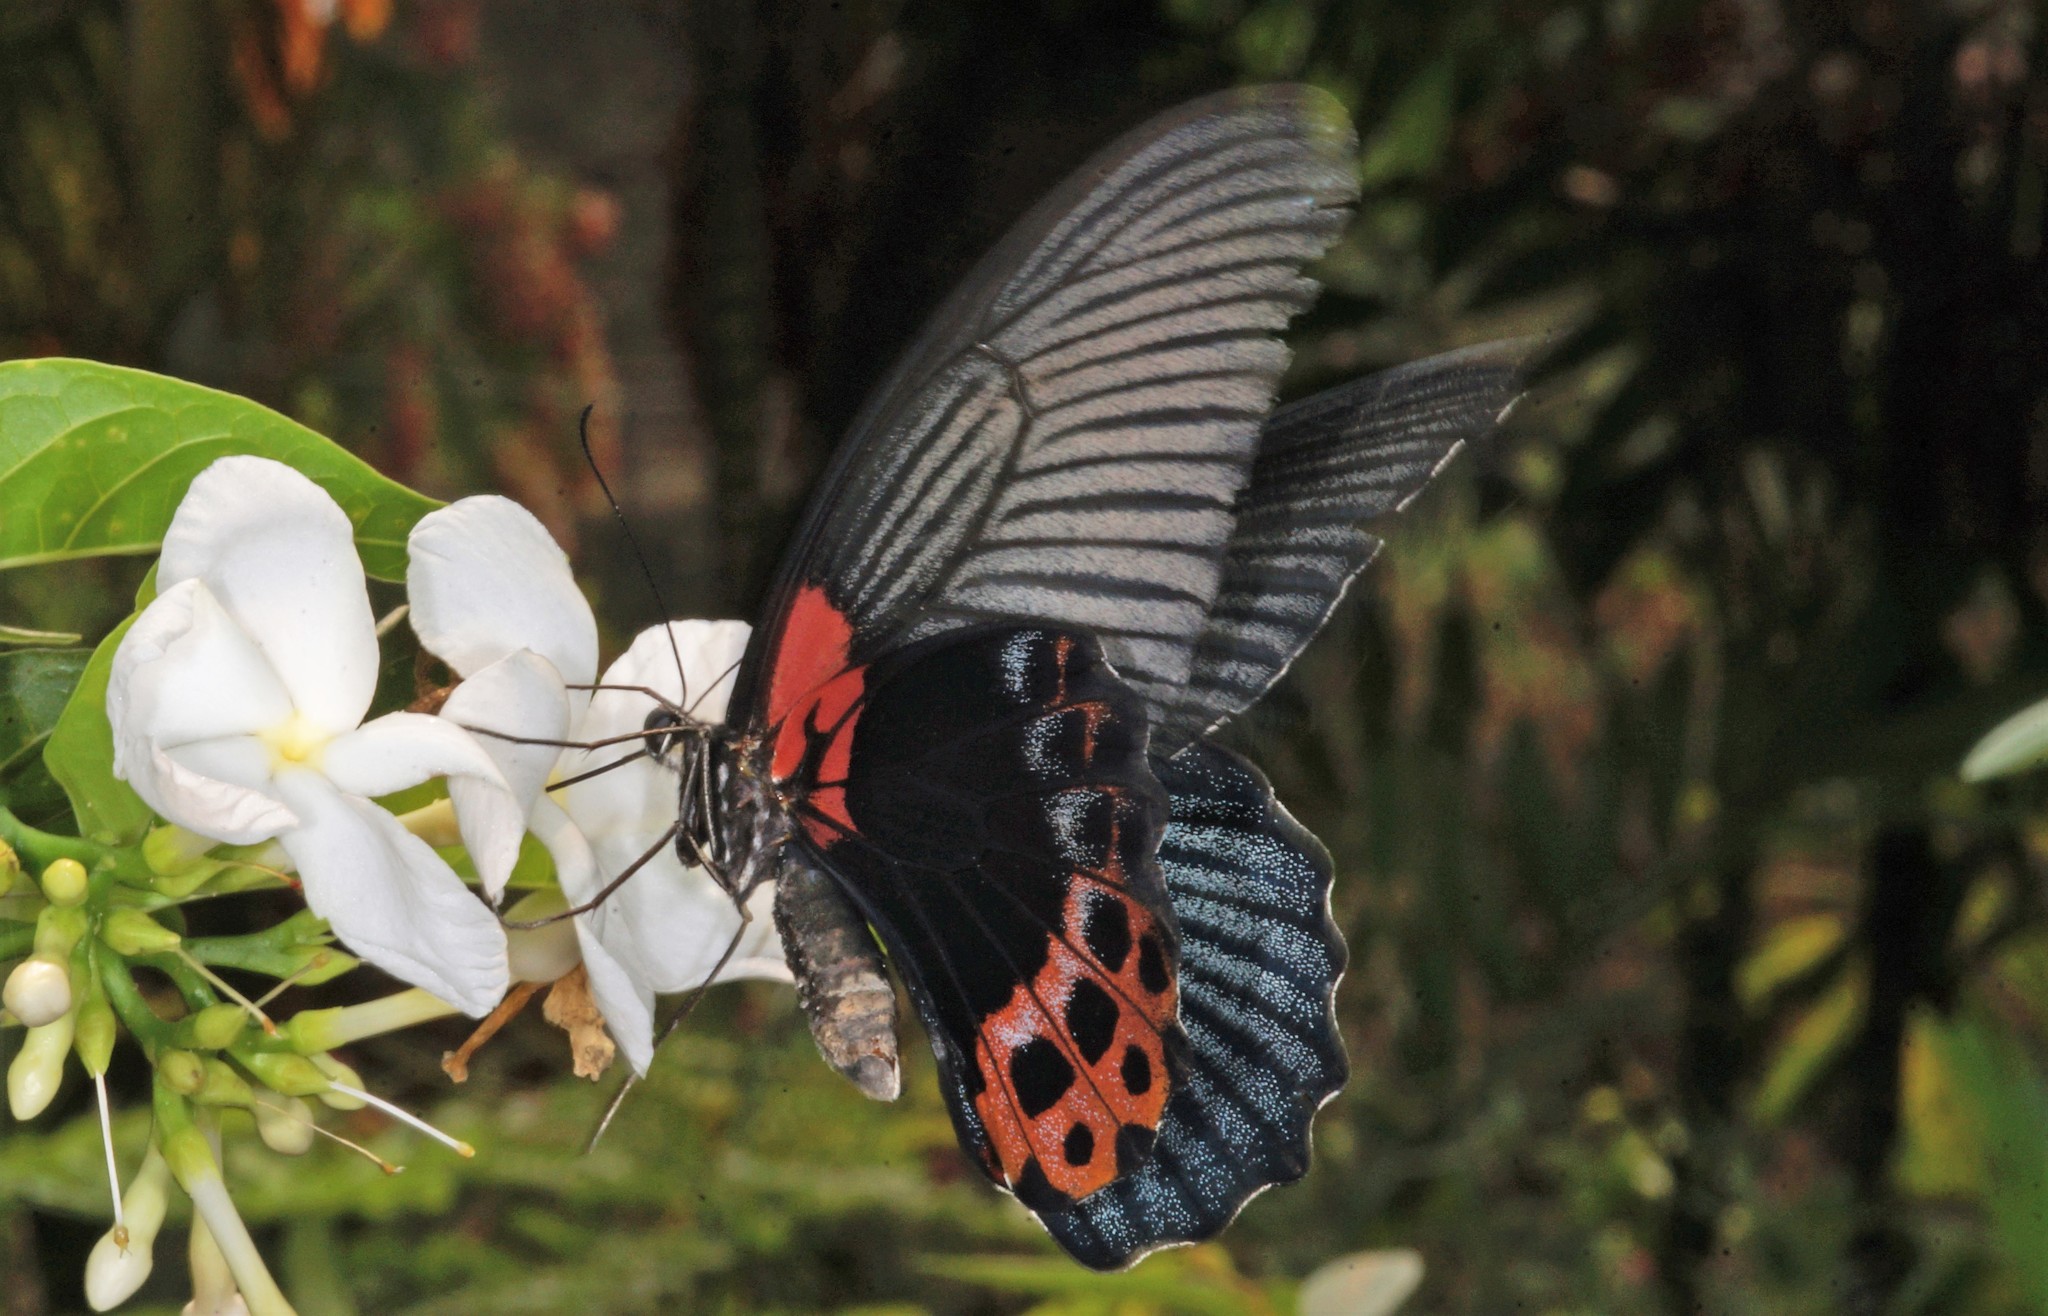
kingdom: Animalia
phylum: Arthropoda
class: Insecta
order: Lepidoptera
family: Papilionidae
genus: Papilio
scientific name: Papilio memnon
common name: Great mormon
